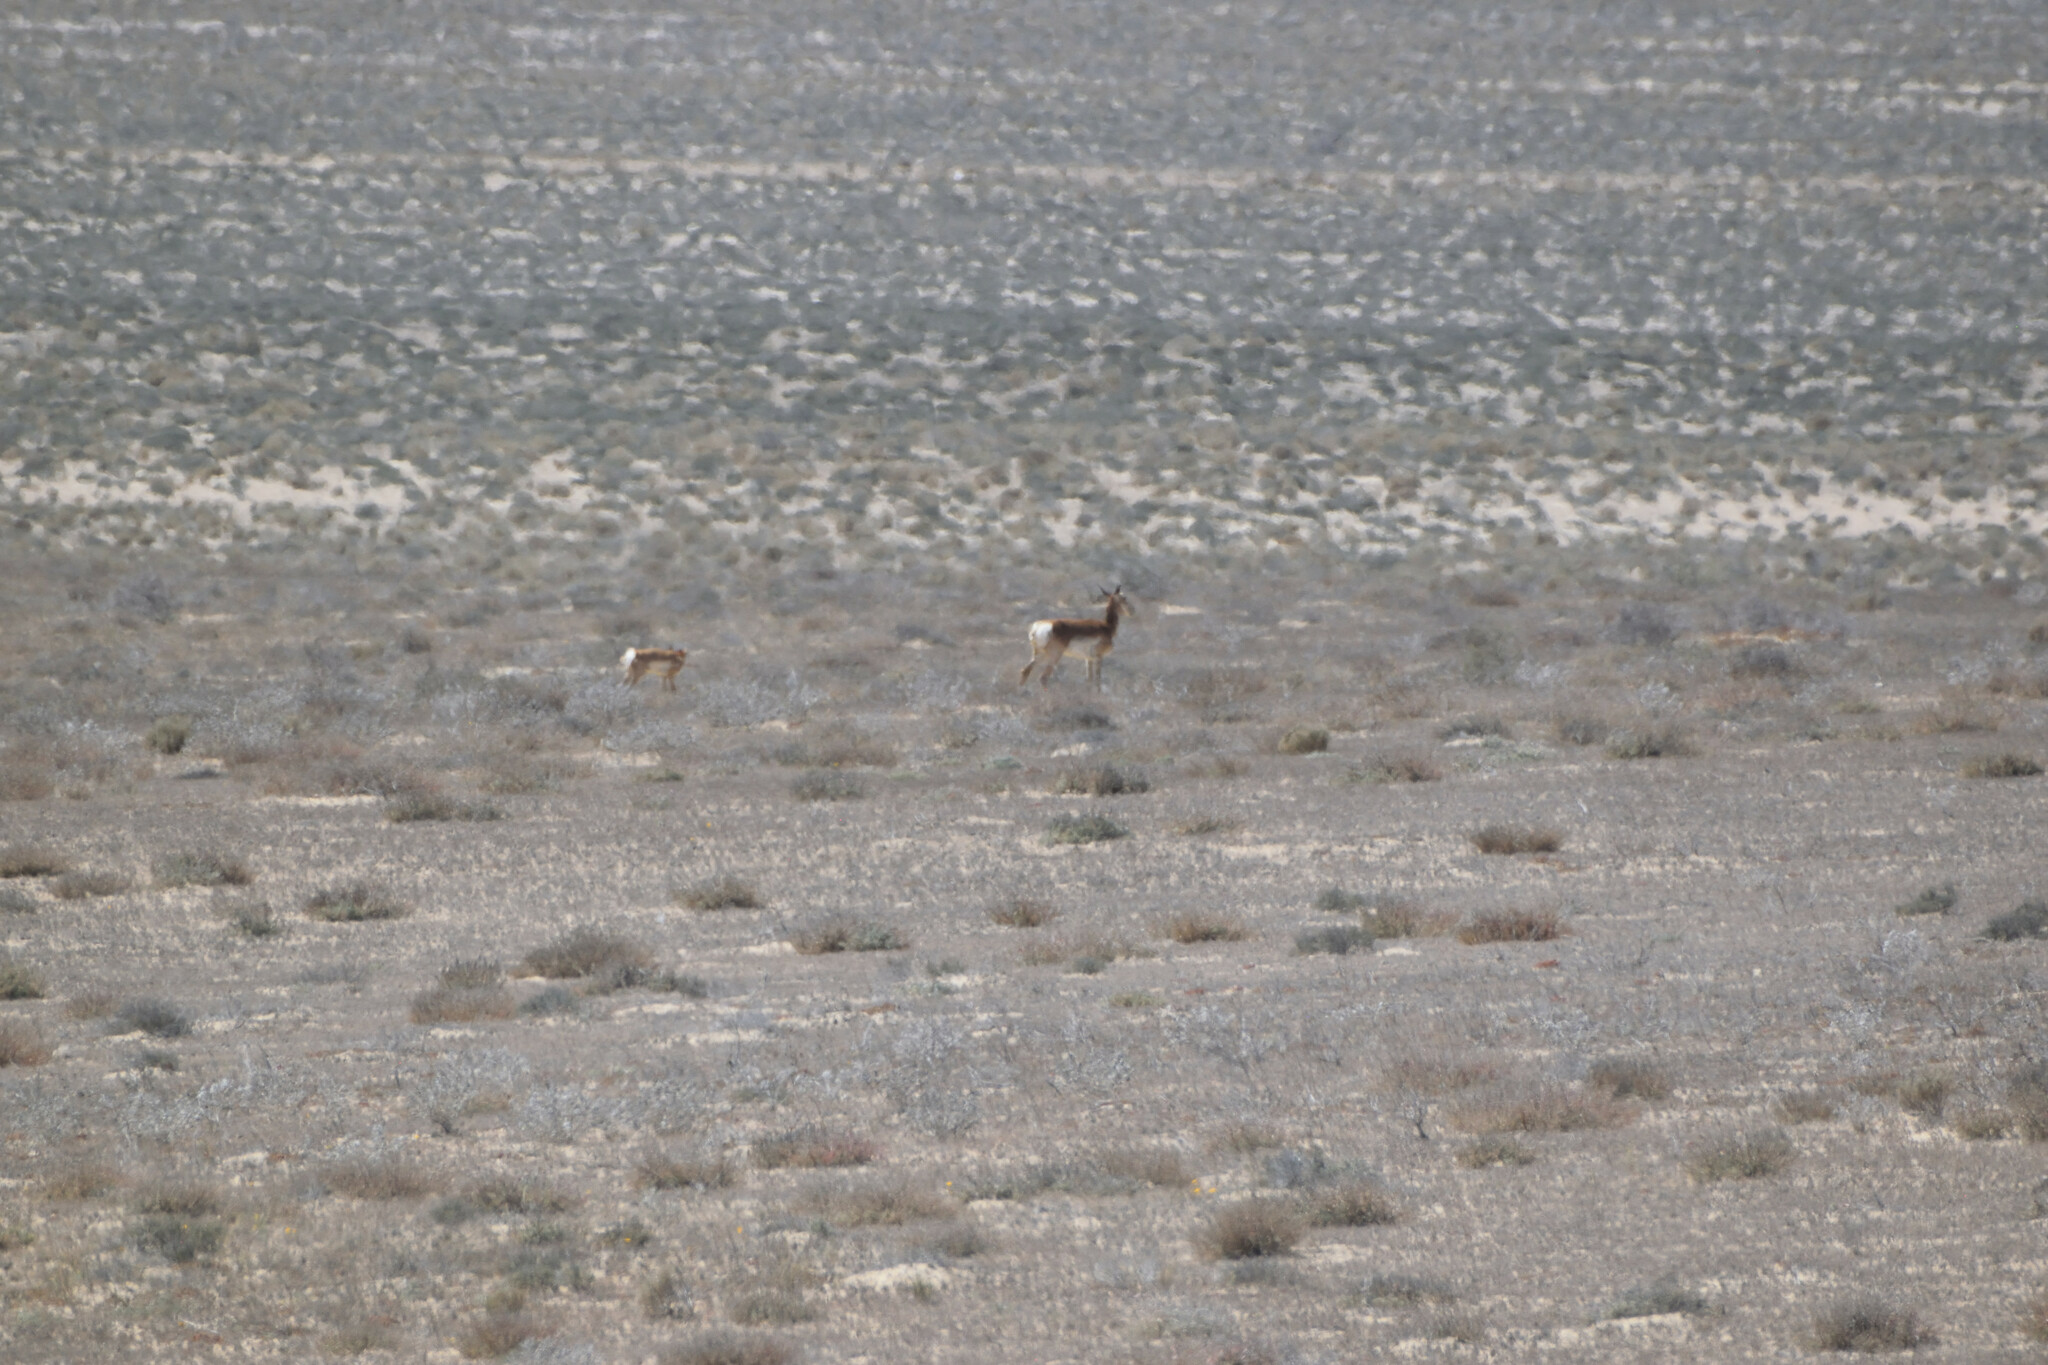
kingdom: Animalia
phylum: Chordata
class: Mammalia
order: Artiodactyla
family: Antilocapridae
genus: Antilocapra
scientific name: Antilocapra americana
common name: Pronghorn
